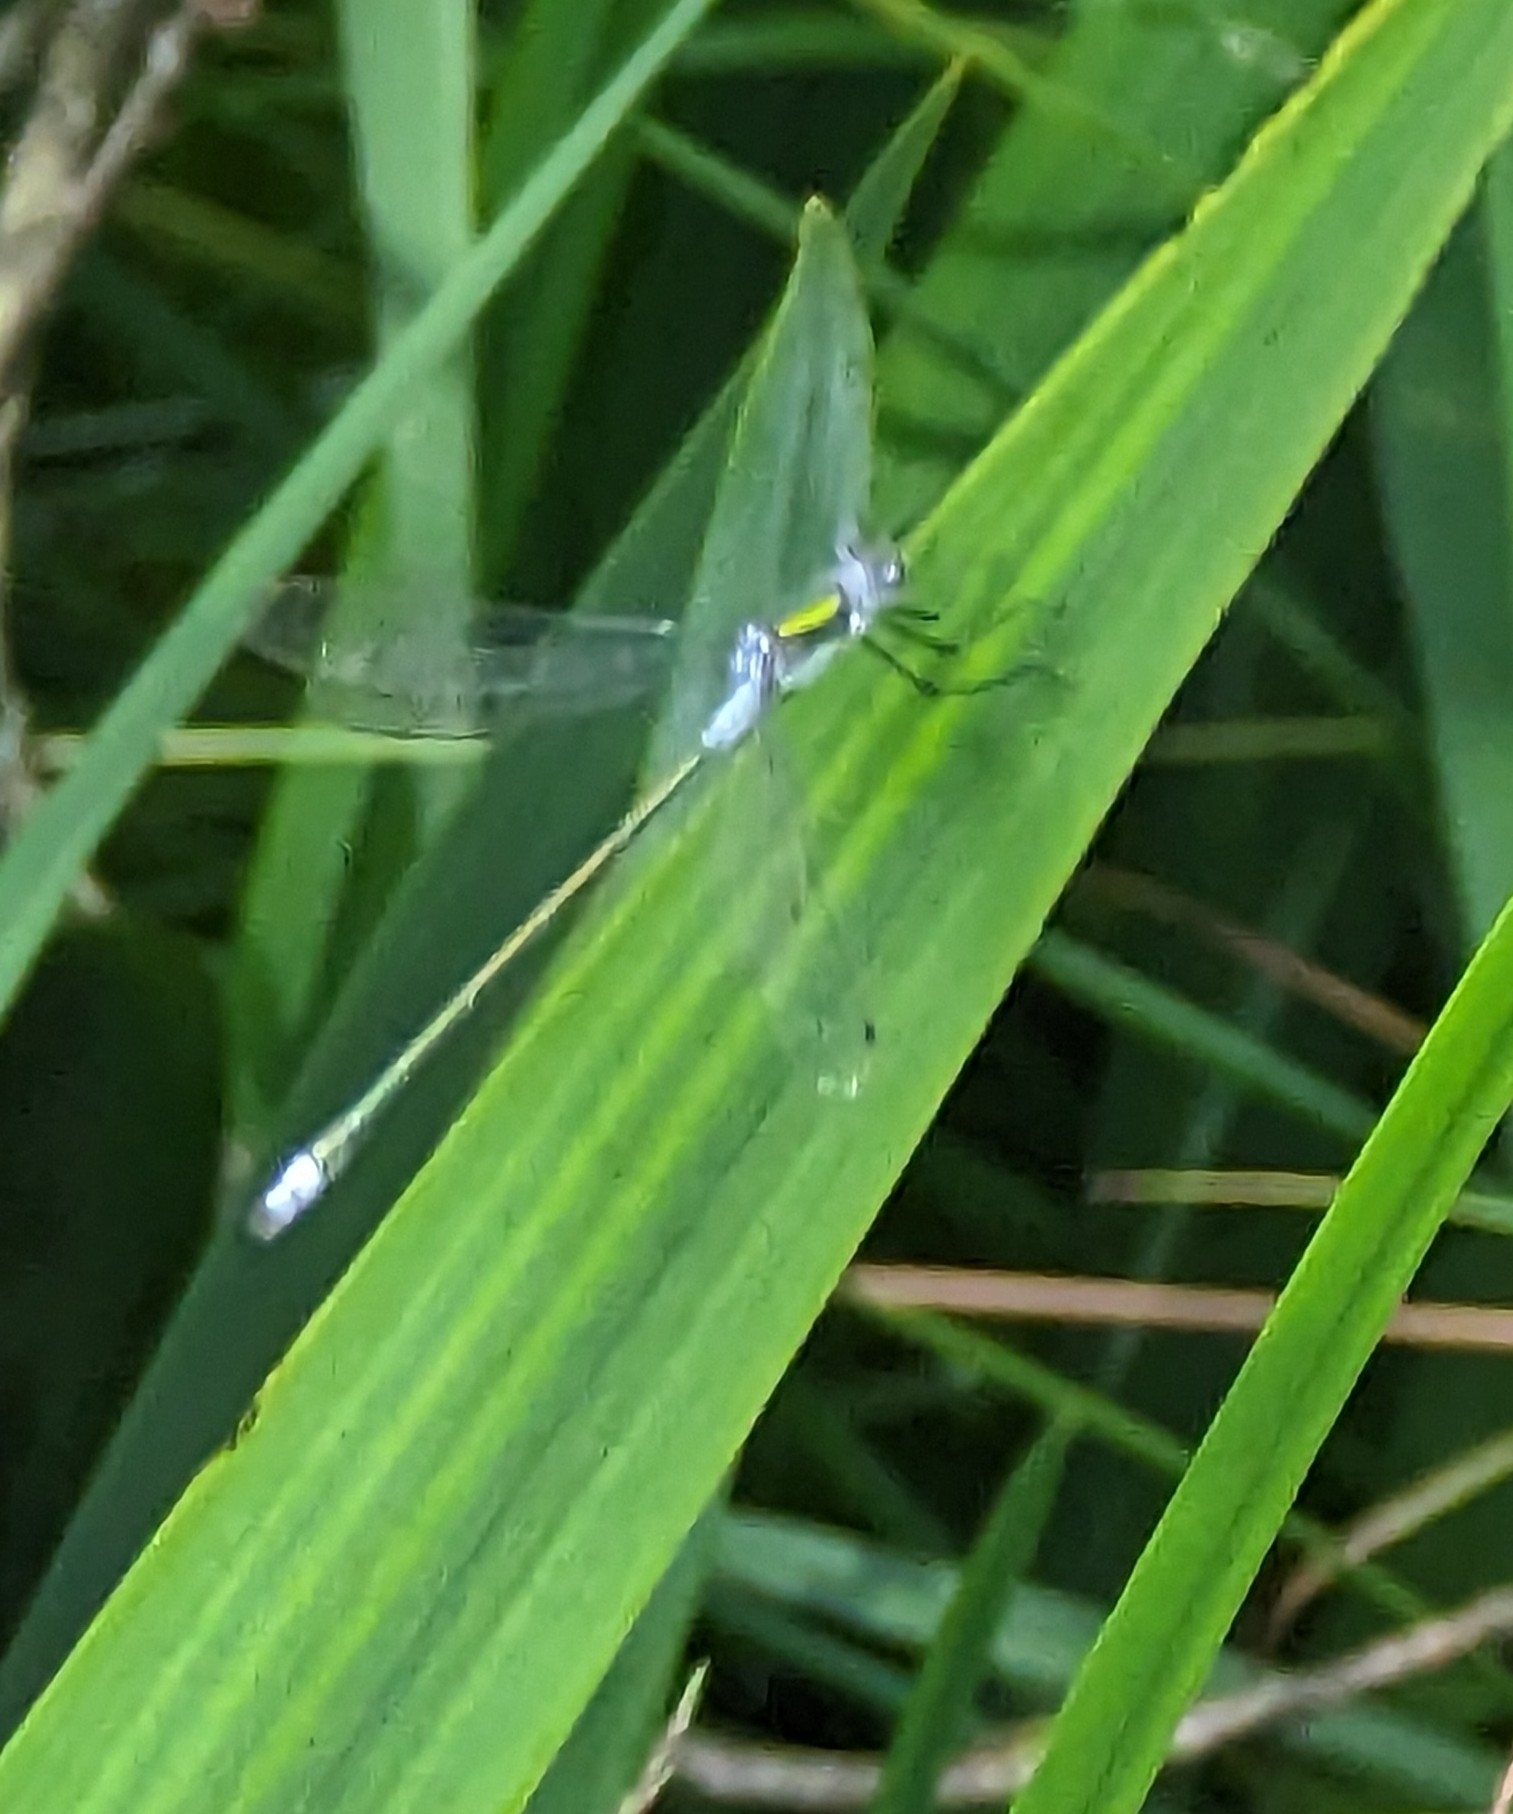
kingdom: Animalia
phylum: Arthropoda
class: Insecta
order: Odonata
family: Lestidae
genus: Lestes
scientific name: Lestes sponsa
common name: Common spreadwing
